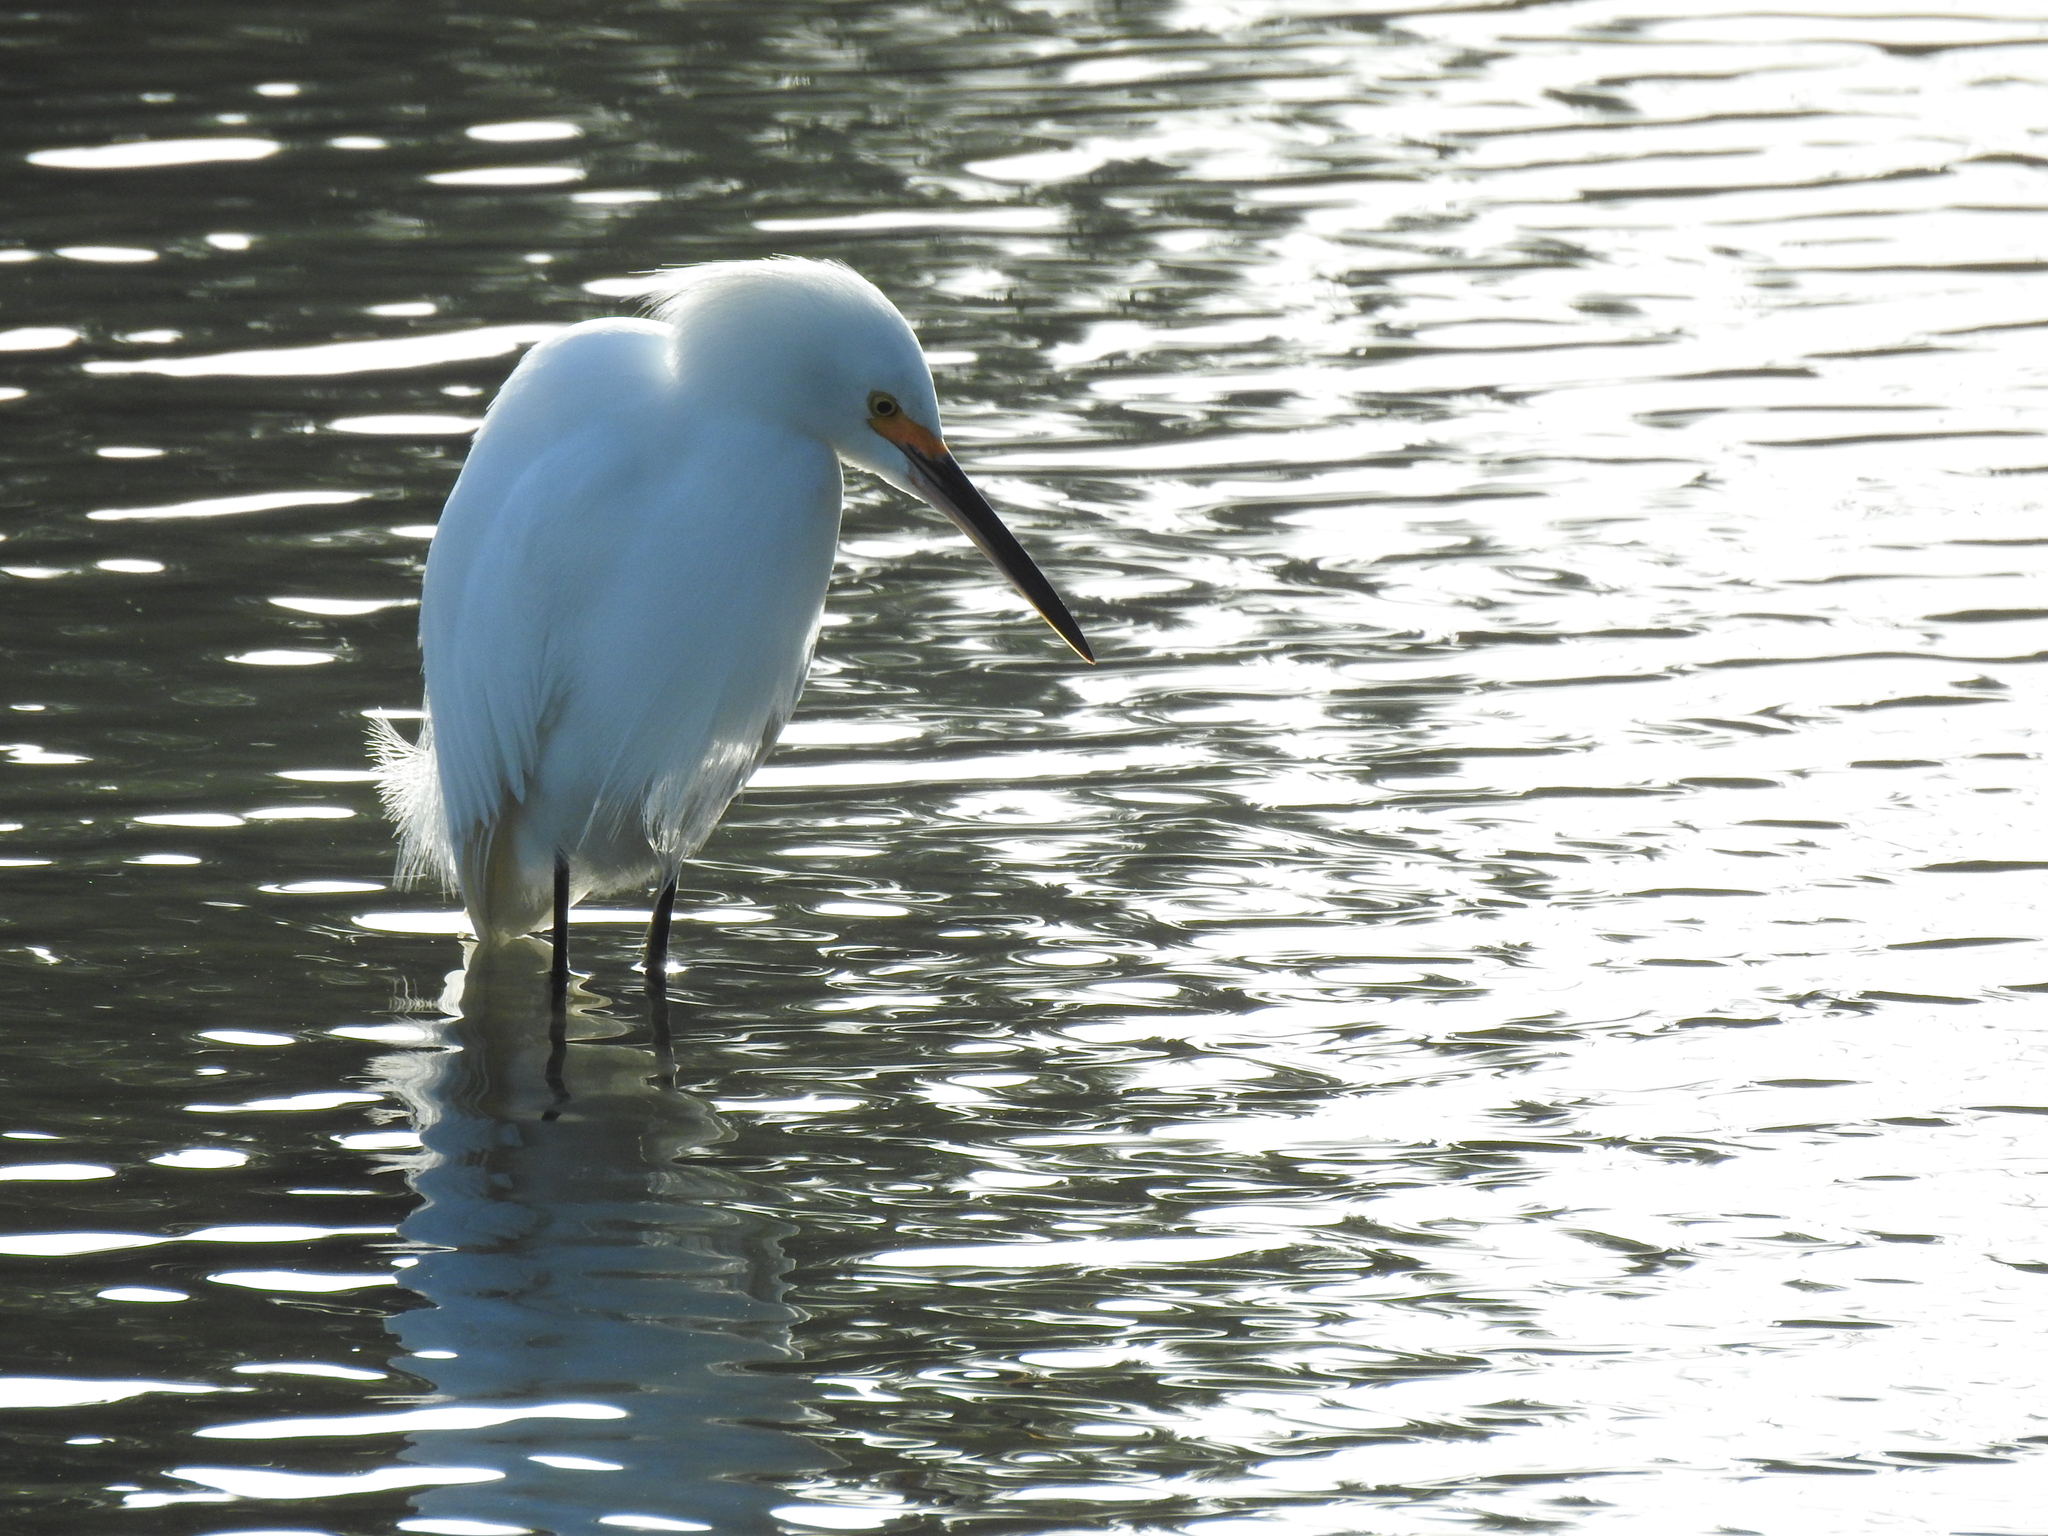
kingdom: Animalia
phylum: Chordata
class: Aves
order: Pelecaniformes
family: Ardeidae
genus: Egretta
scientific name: Egretta thula
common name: Snowy egret
